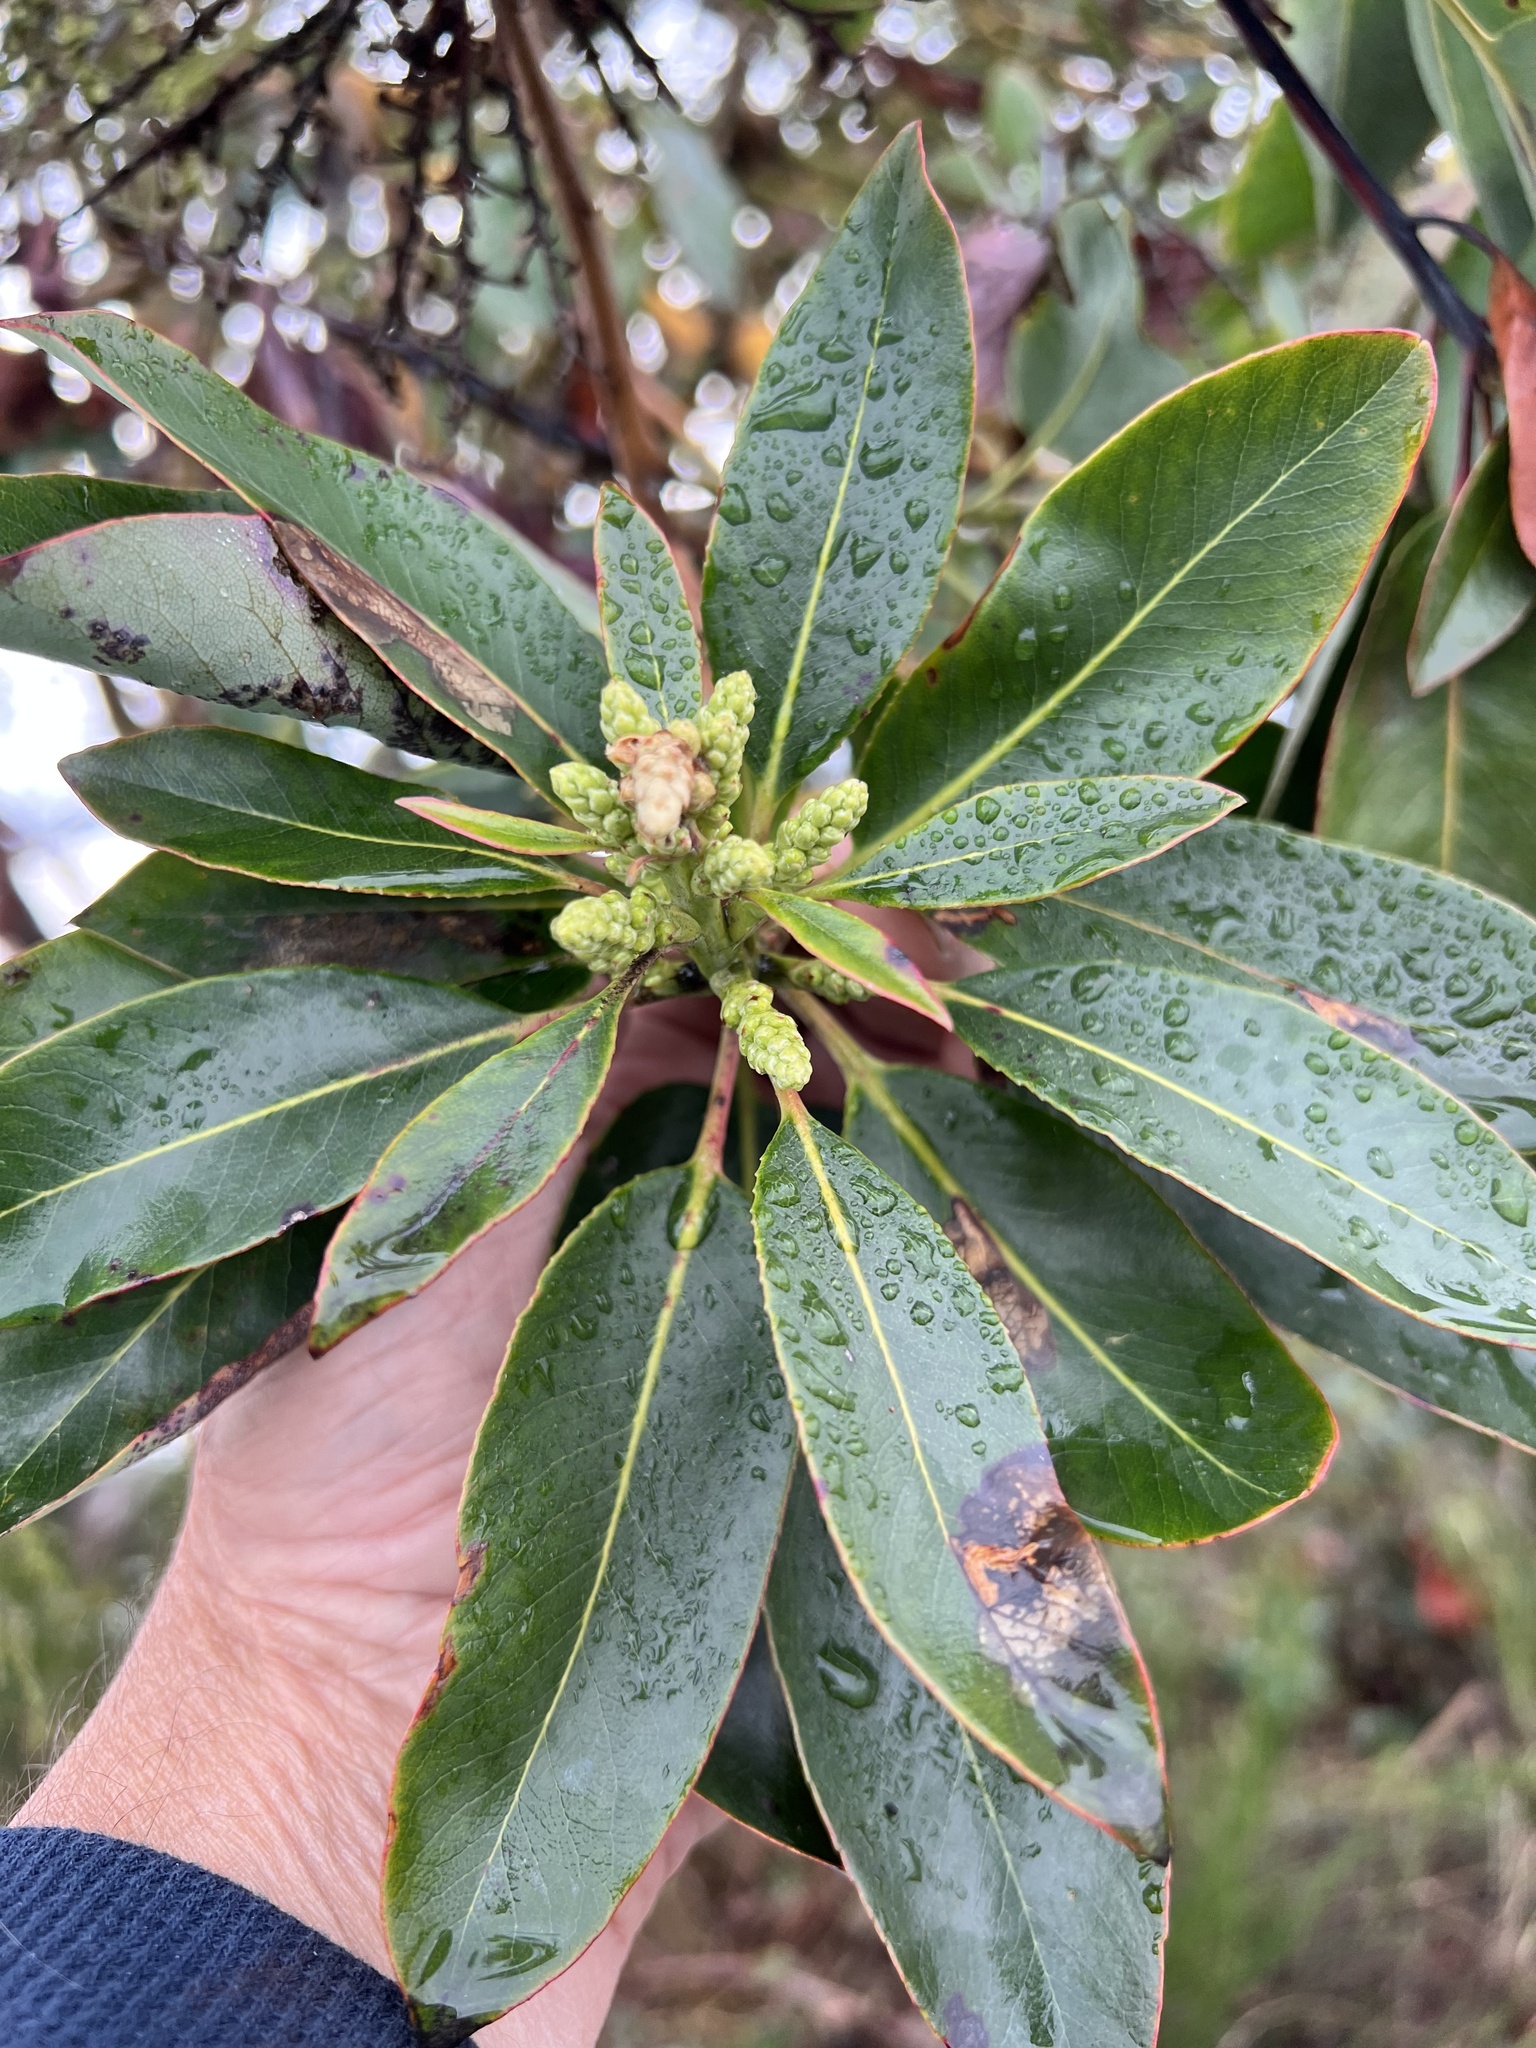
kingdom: Plantae
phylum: Tracheophyta
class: Magnoliopsida
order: Ericales
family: Ericaceae
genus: Arbutus
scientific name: Arbutus menziesii
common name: Pacific madrone
